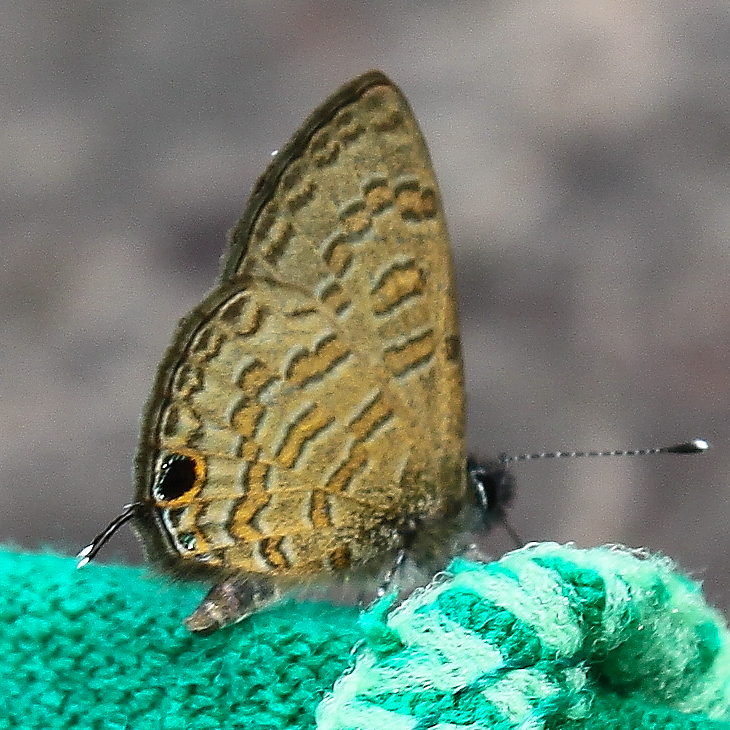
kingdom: Animalia
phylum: Arthropoda
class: Insecta
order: Lepidoptera
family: Lycaenidae
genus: Prosotas
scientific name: Prosotas nora
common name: Common line blue
